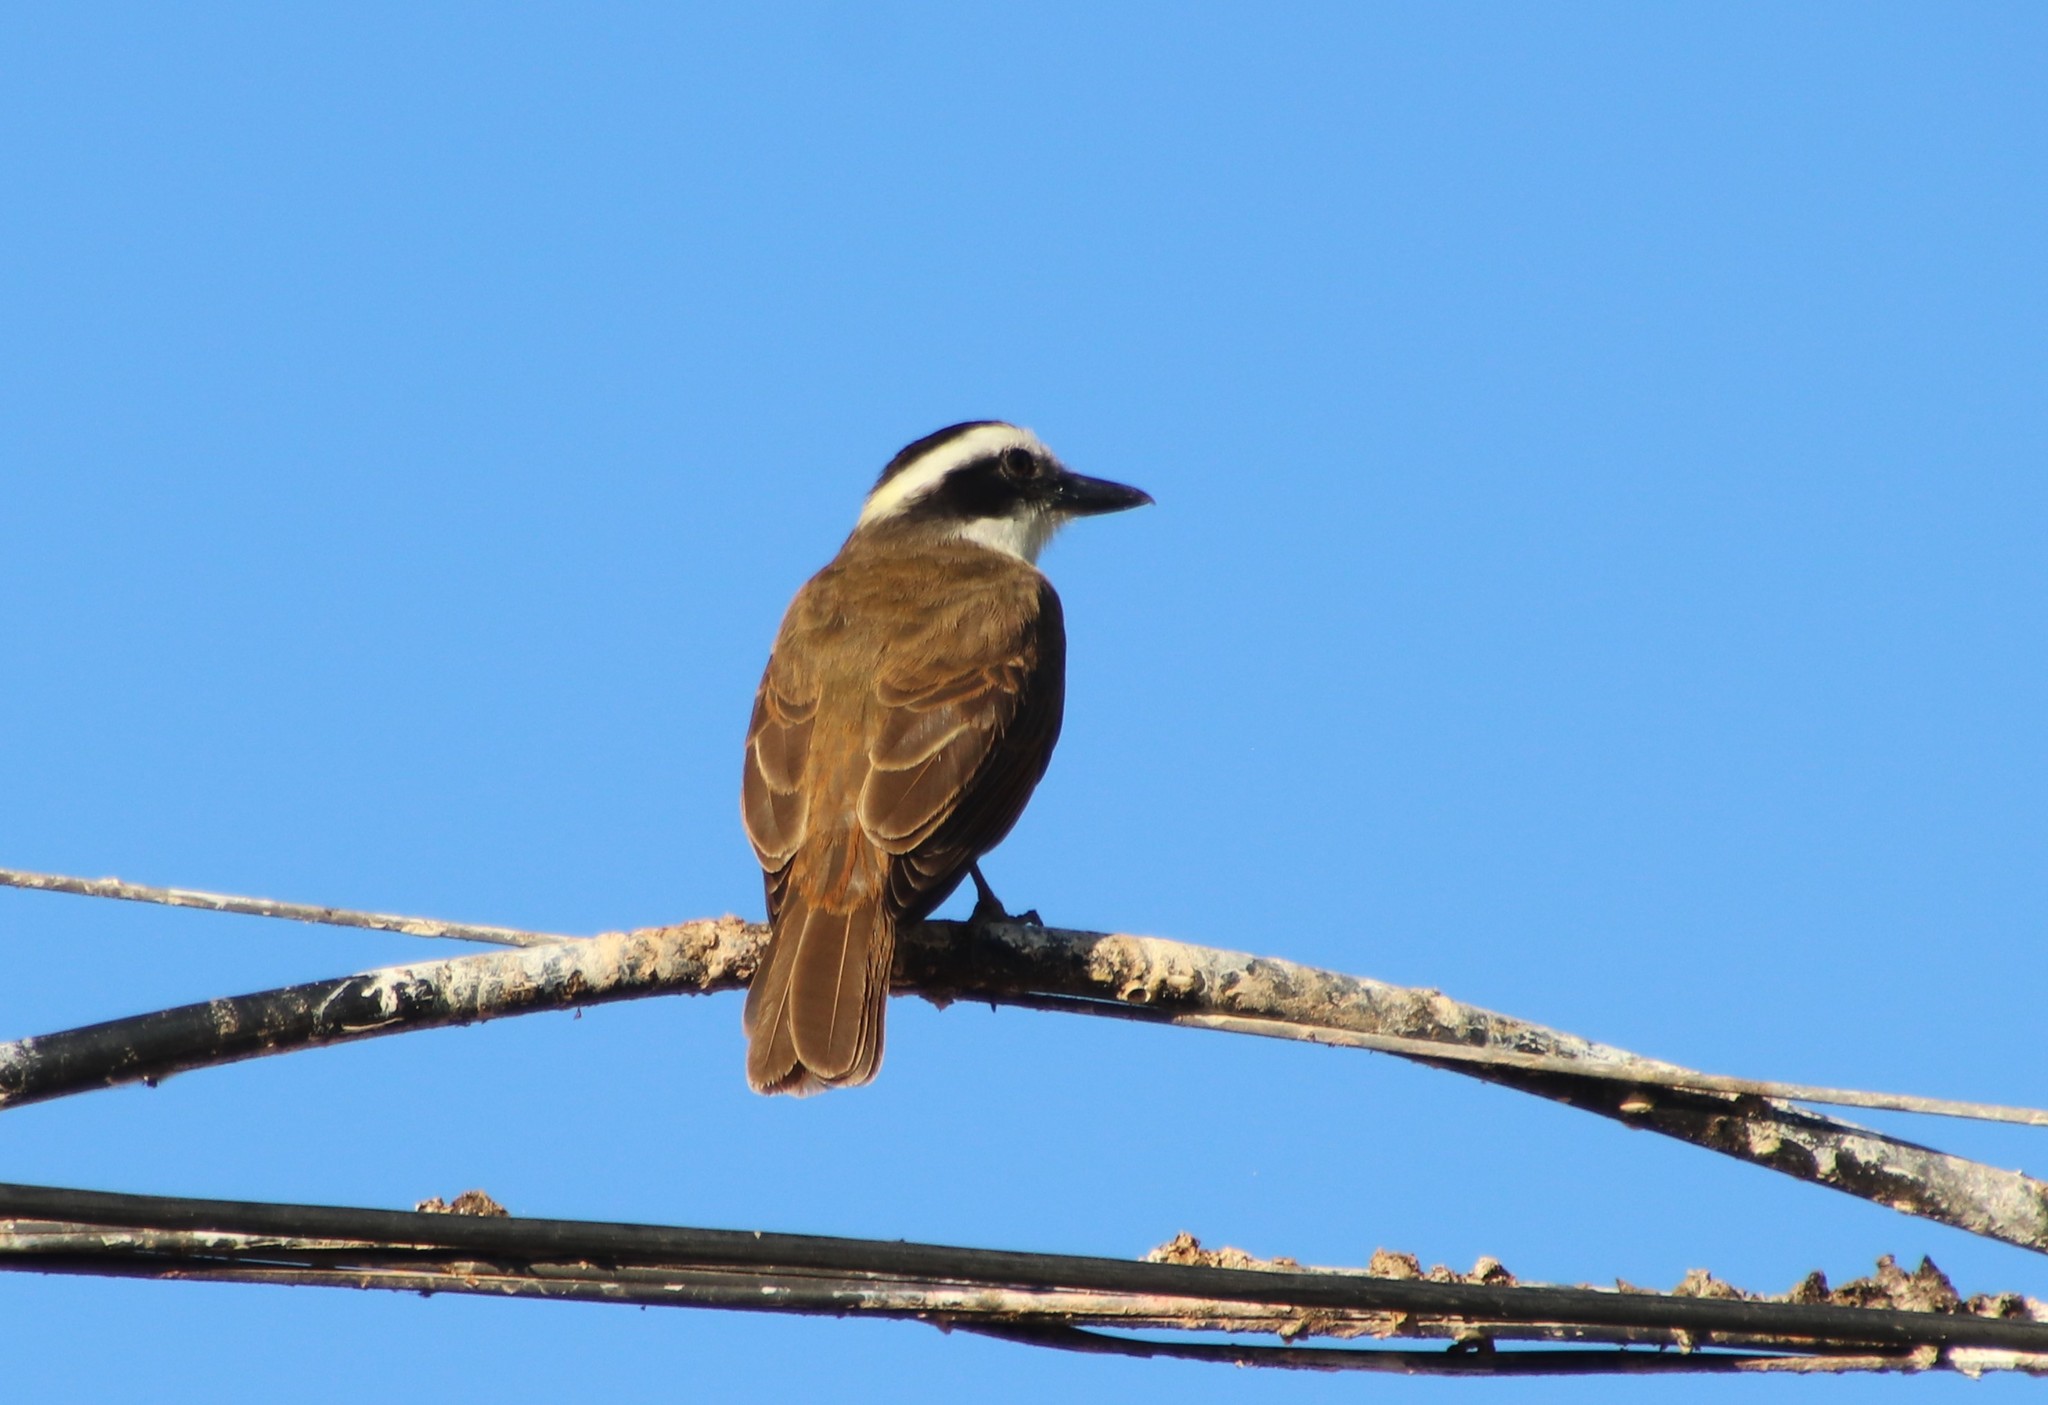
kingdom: Animalia
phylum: Chordata
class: Aves
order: Passeriformes
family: Tyrannidae
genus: Pitangus
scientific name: Pitangus sulphuratus
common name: Great kiskadee
